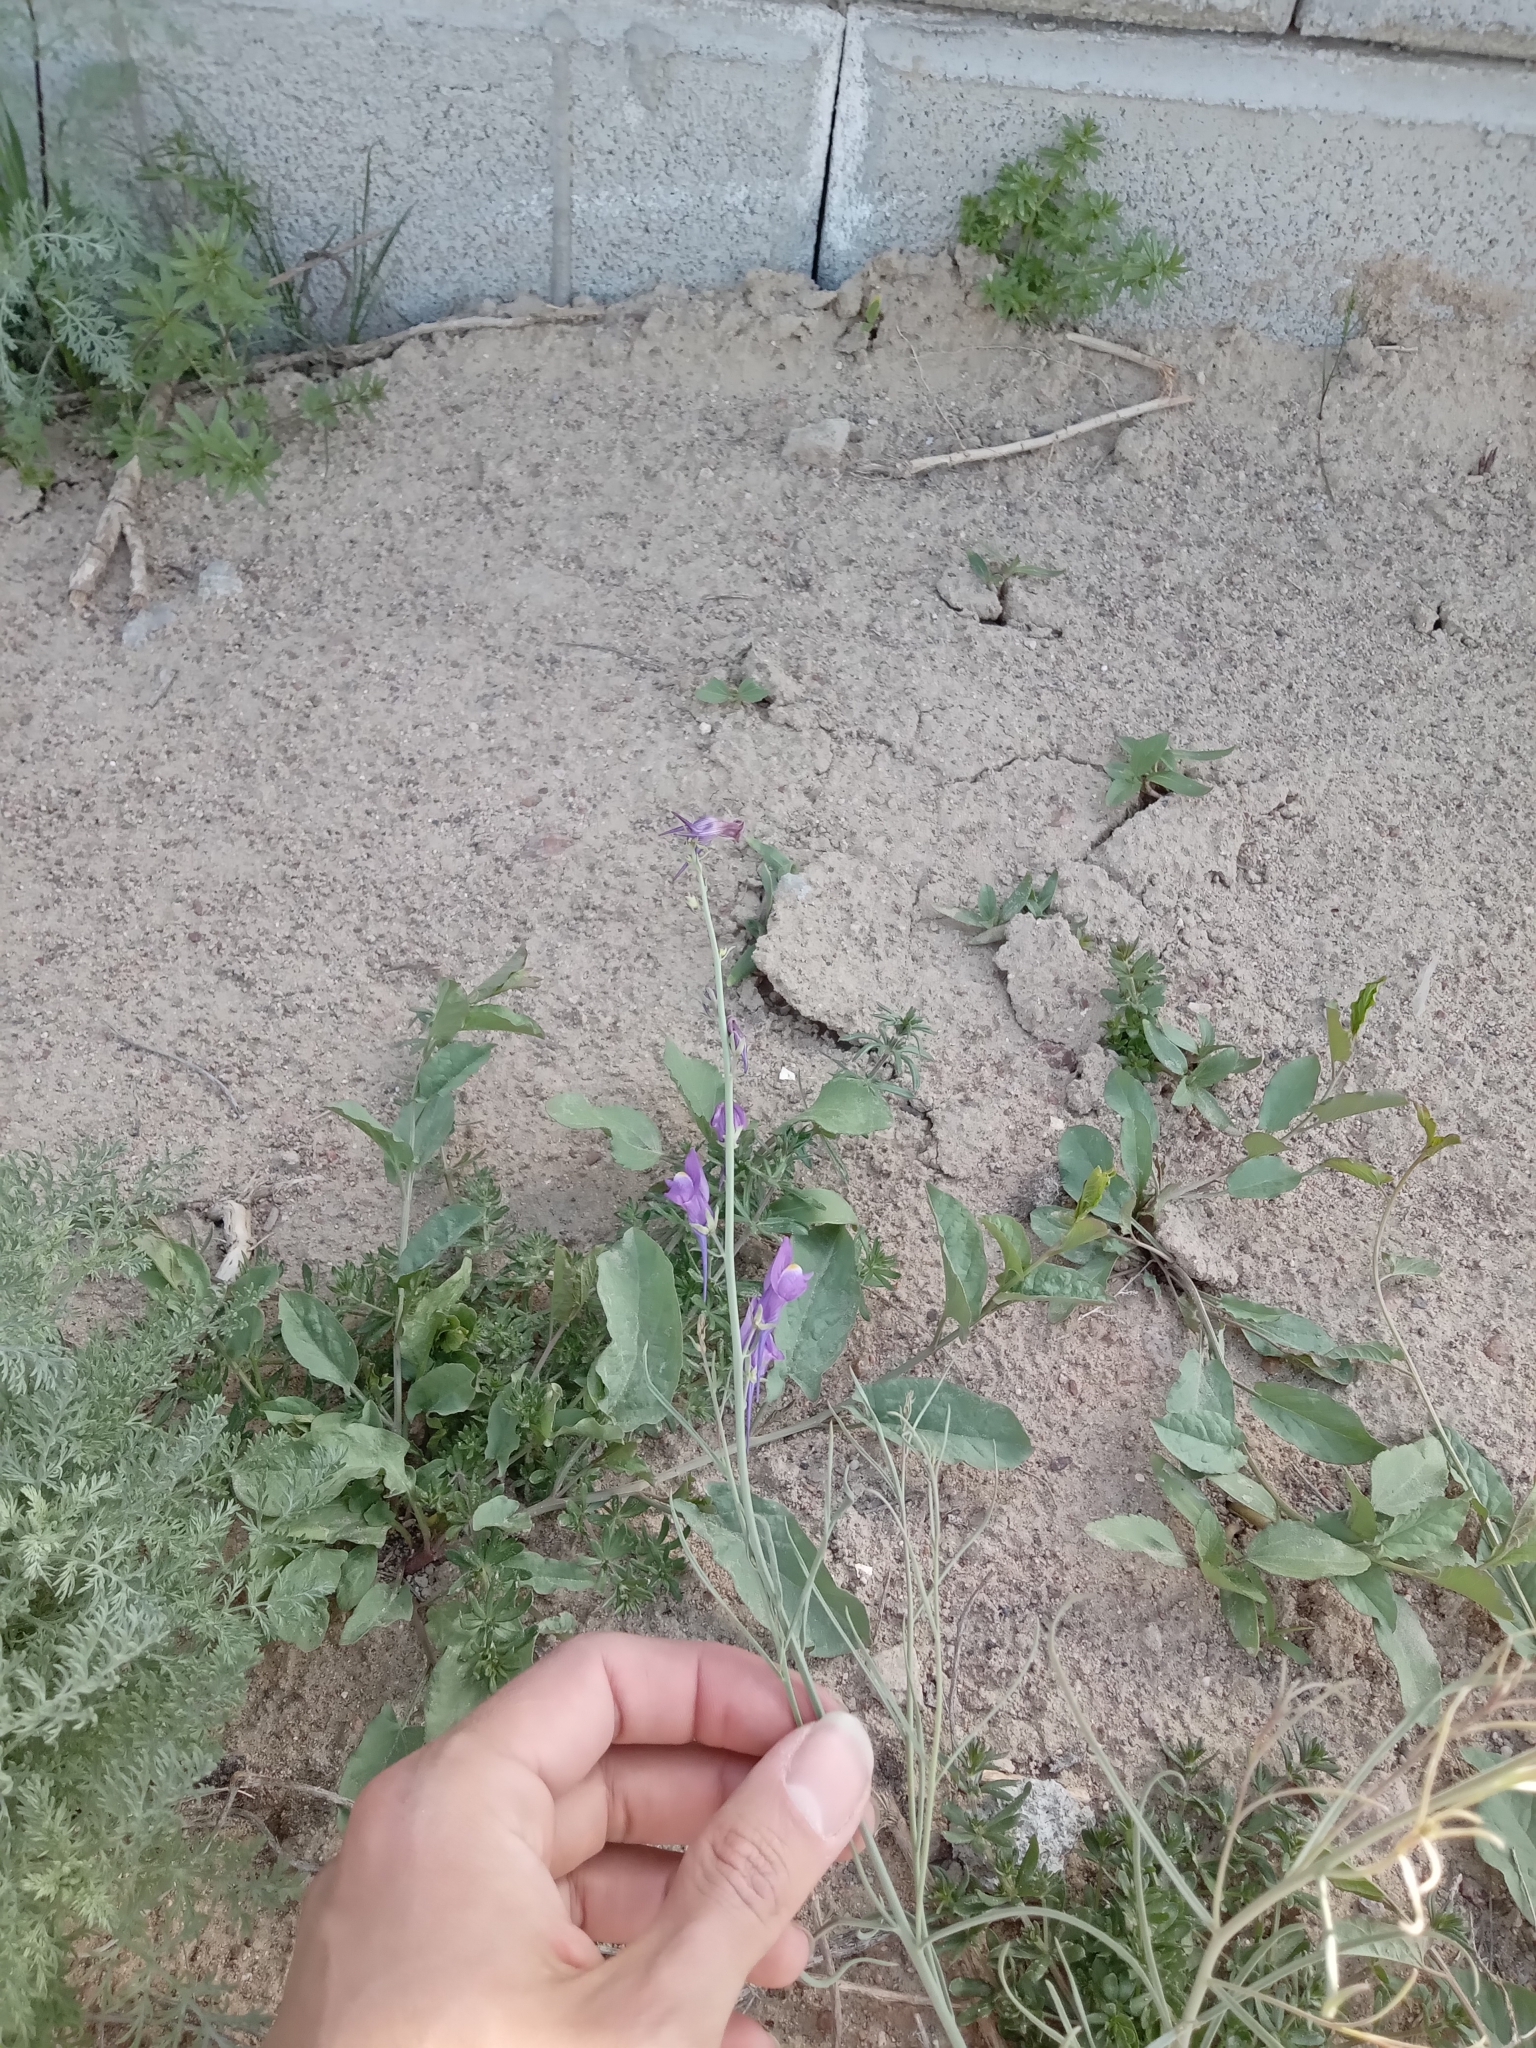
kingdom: Plantae
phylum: Tracheophyta
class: Magnoliopsida
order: Lamiales
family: Plantaginaceae
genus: Linaria
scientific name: Linaria bungei
